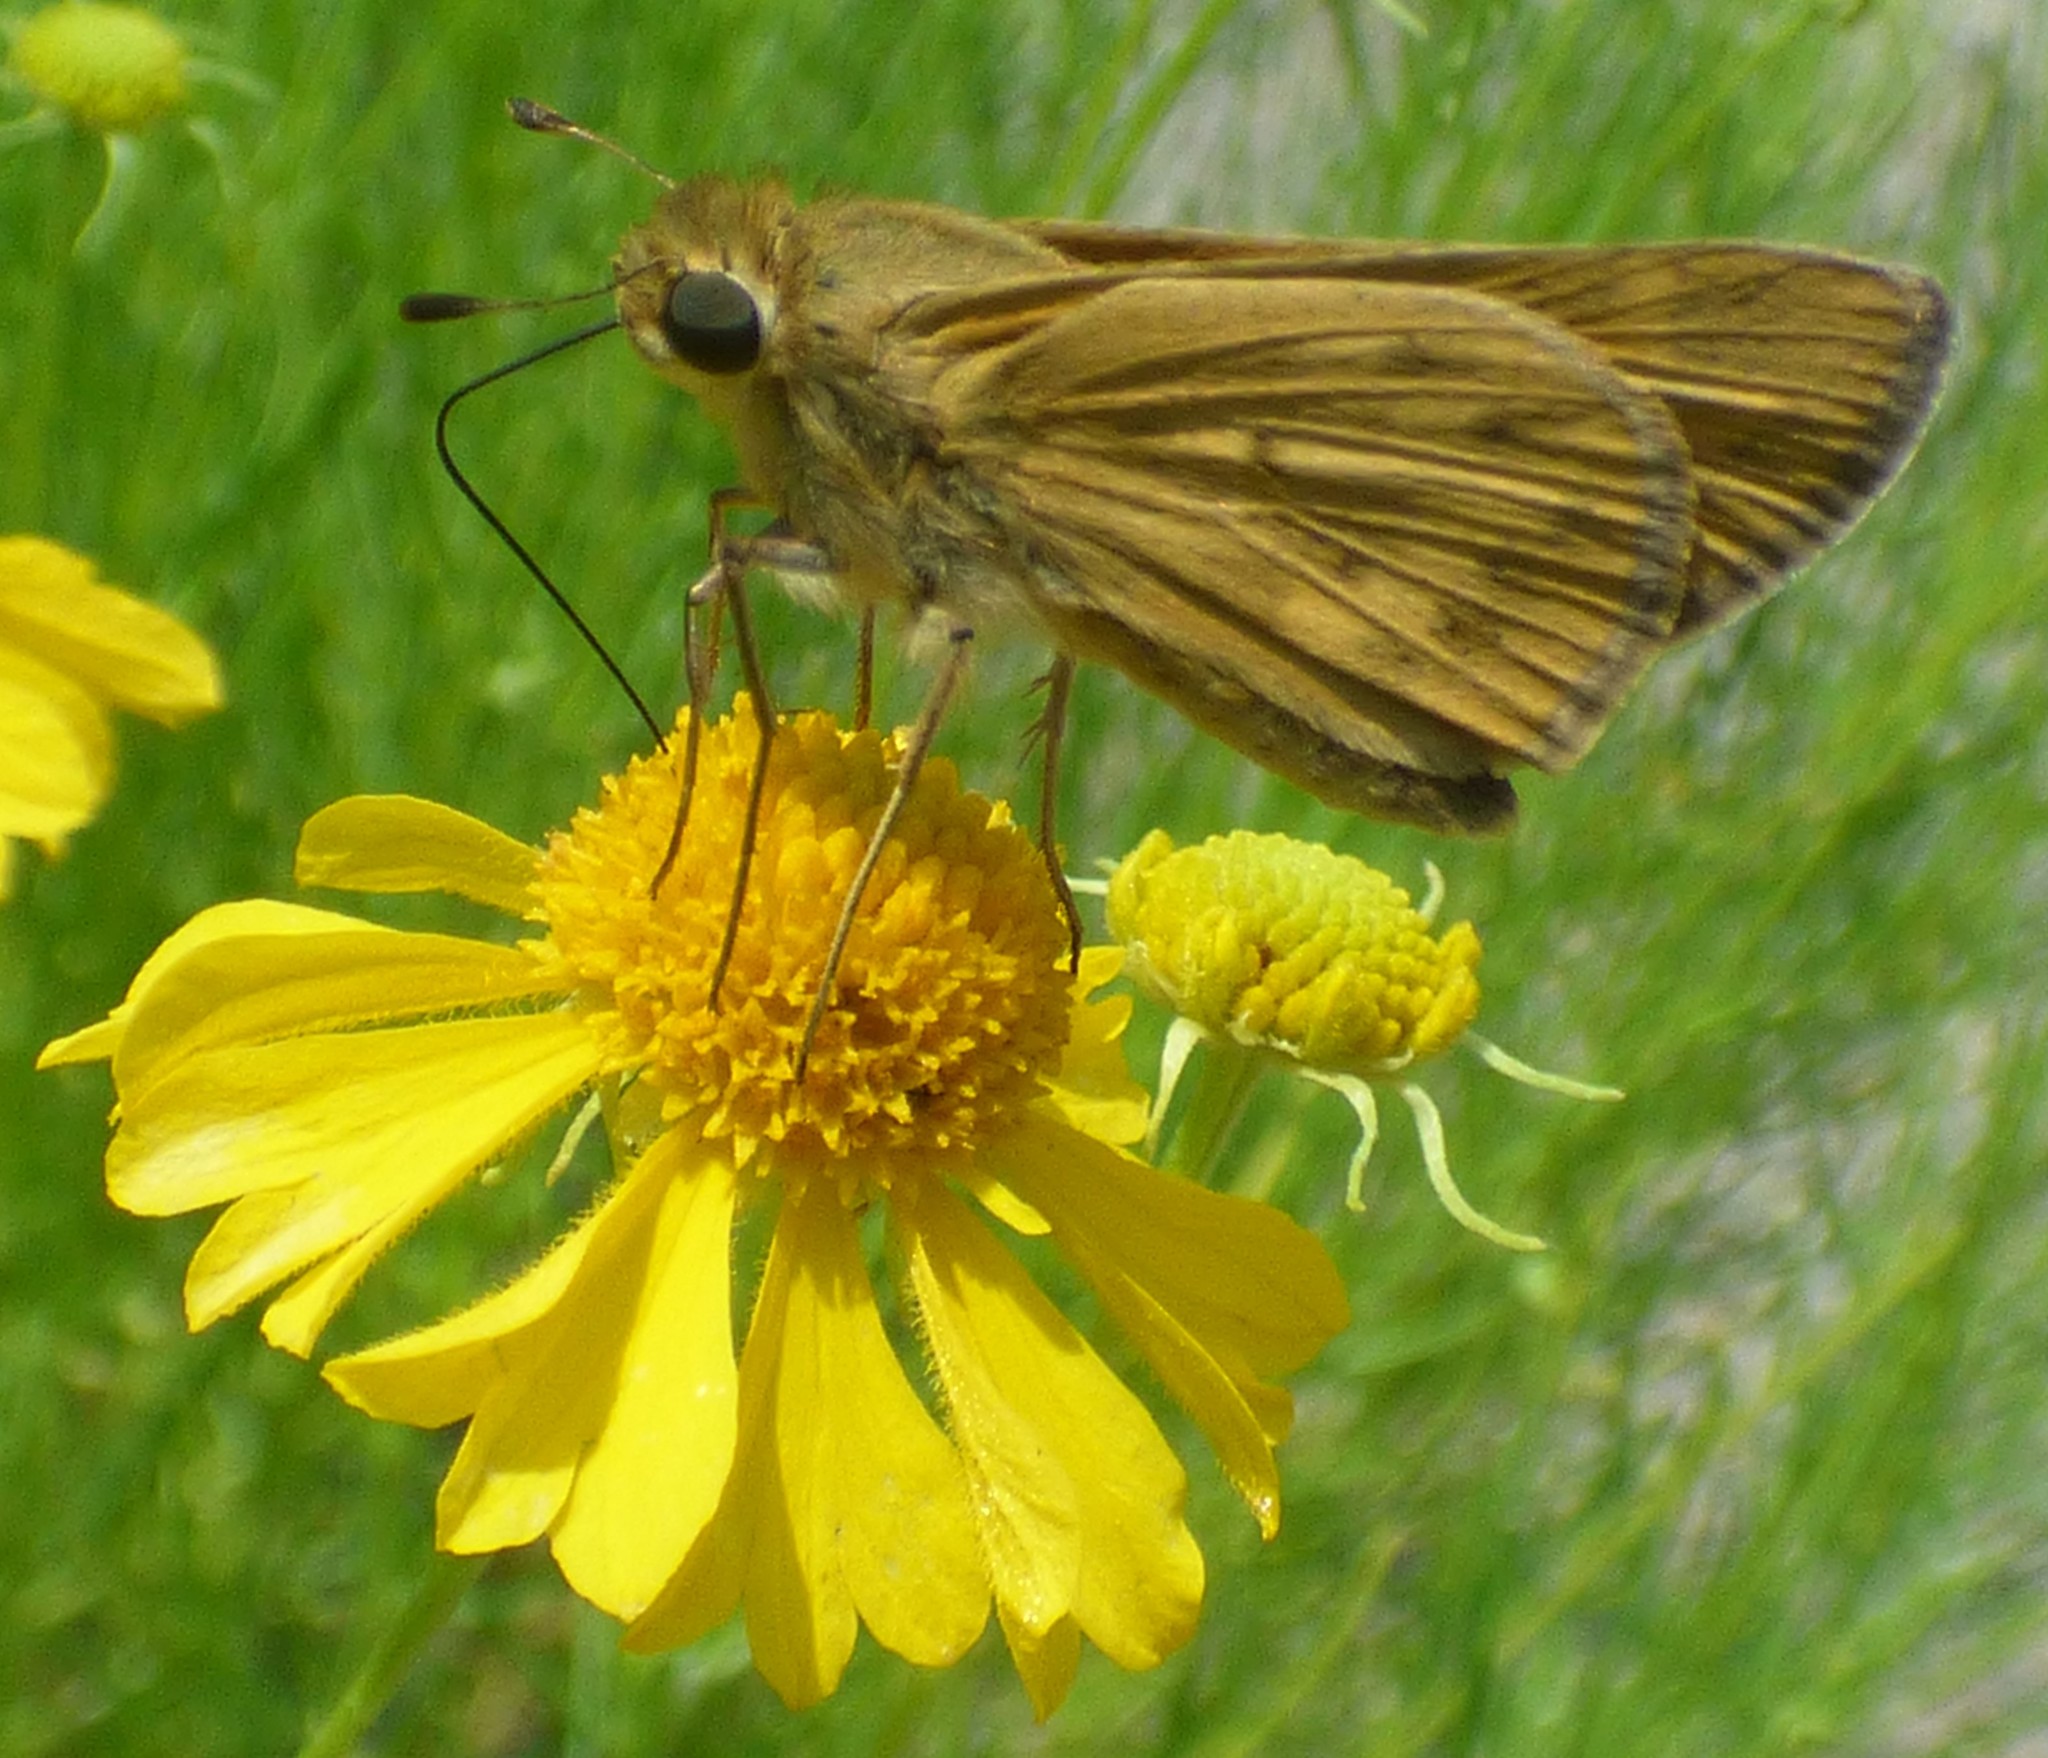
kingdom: Animalia
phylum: Arthropoda
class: Insecta
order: Lepidoptera
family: Hesperiidae
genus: Hylephila
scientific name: Hylephila phyleus
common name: Fiery skipper
